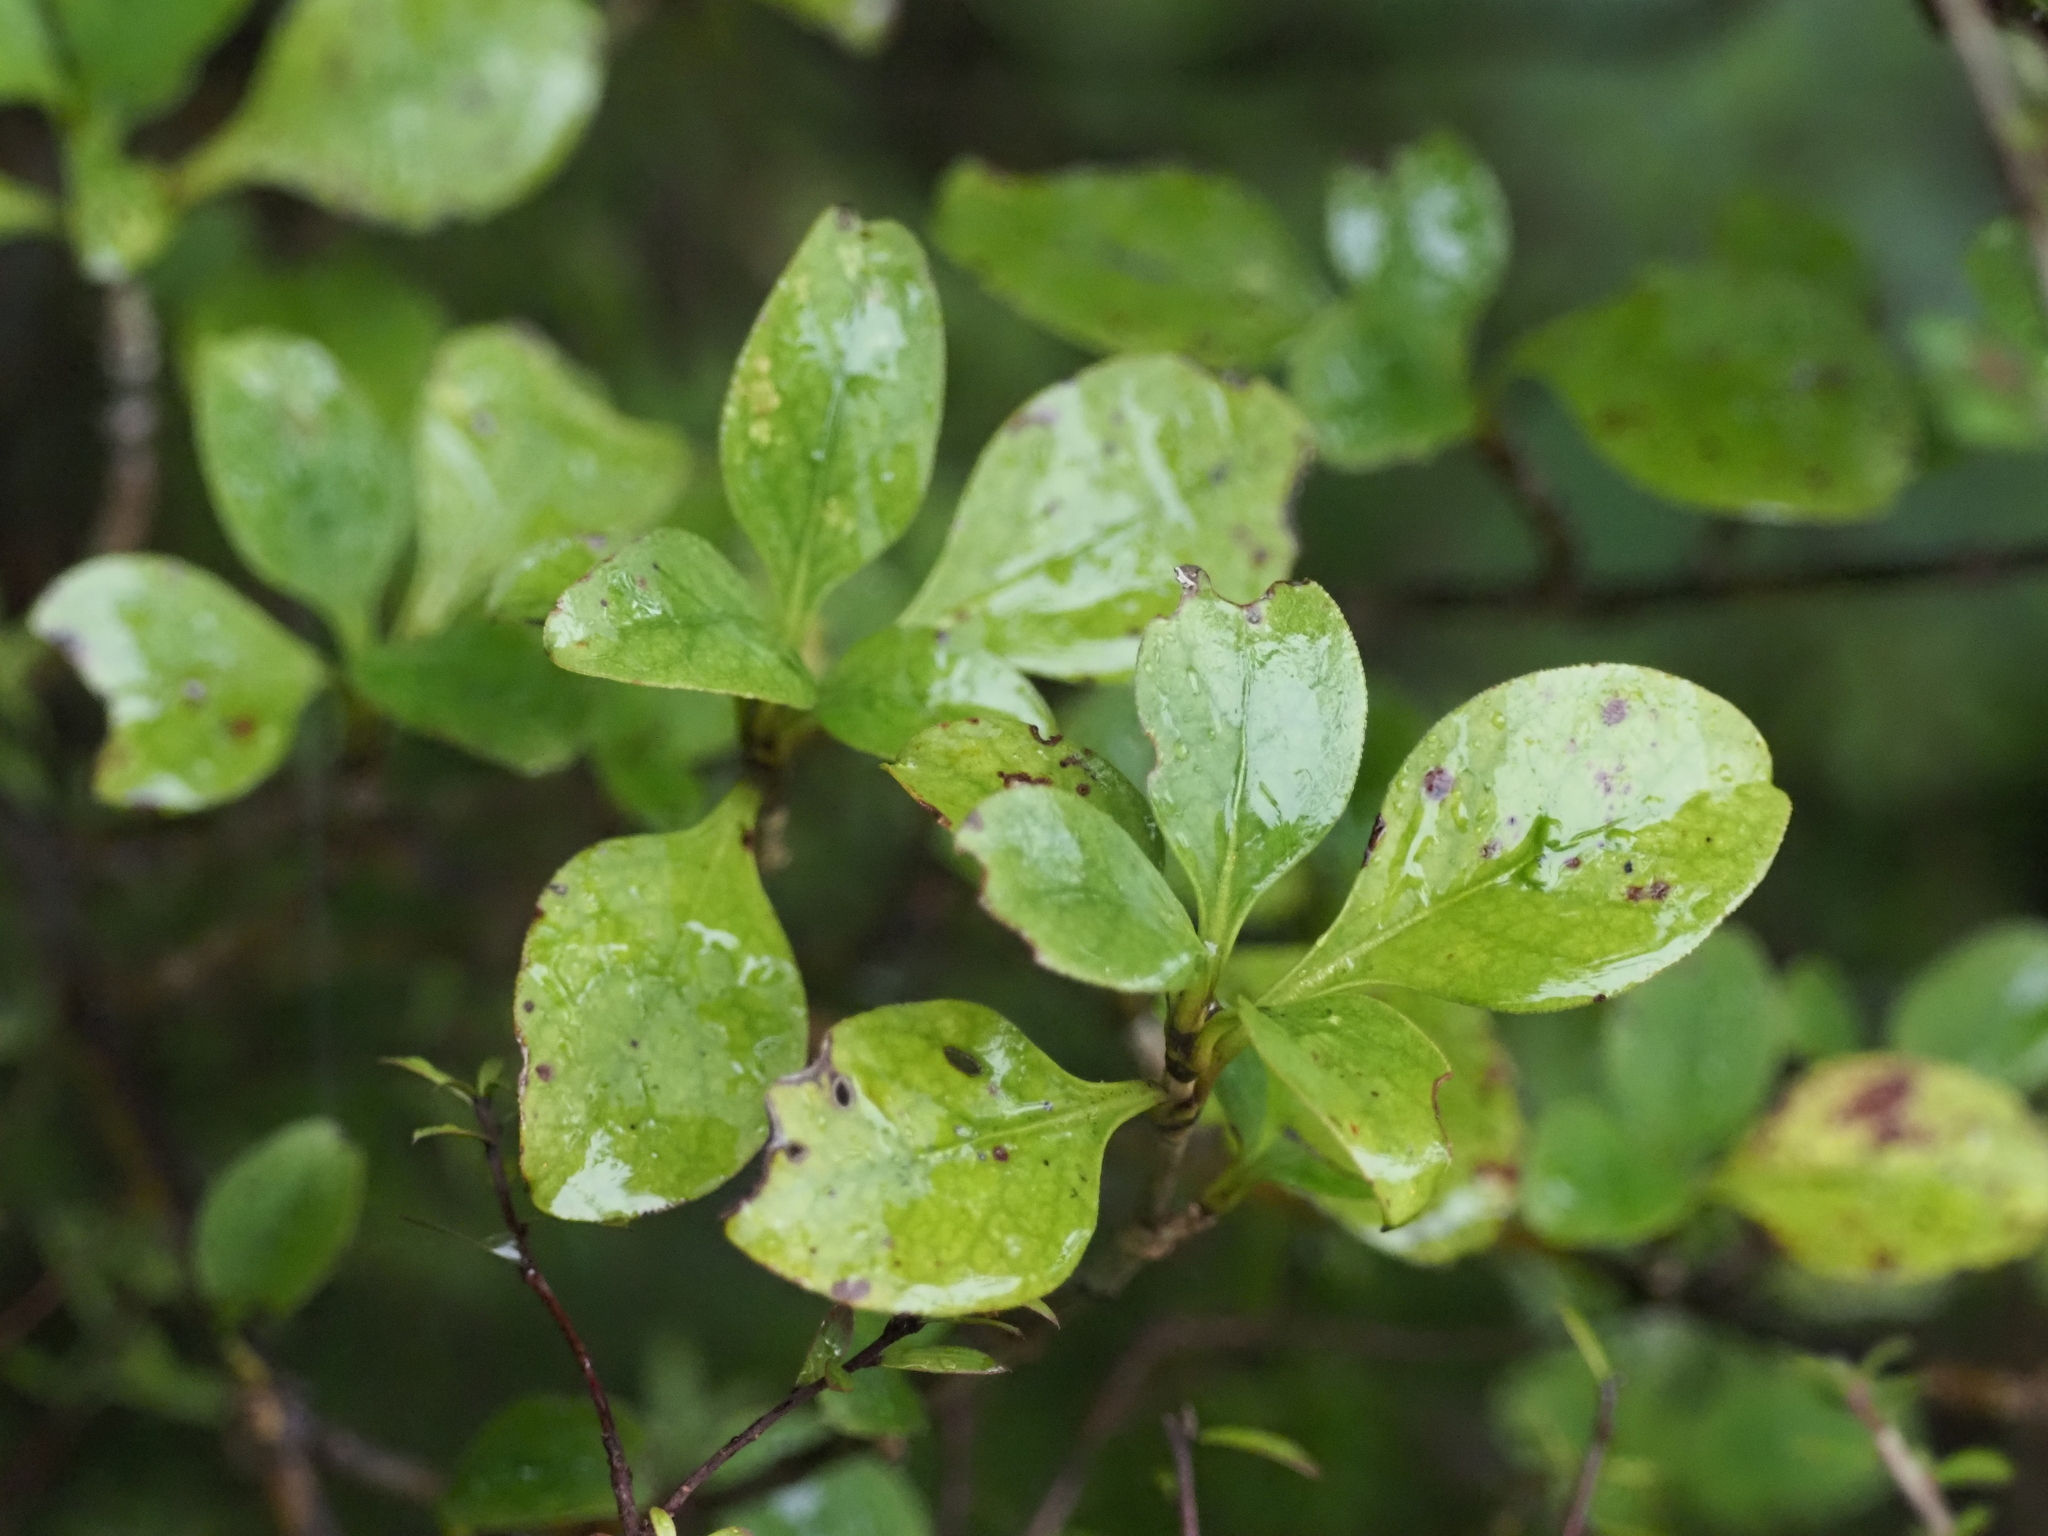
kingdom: Plantae
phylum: Tracheophyta
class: Magnoliopsida
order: Gentianales
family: Rubiaceae
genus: Coprosma
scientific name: Coprosma foetidissima
